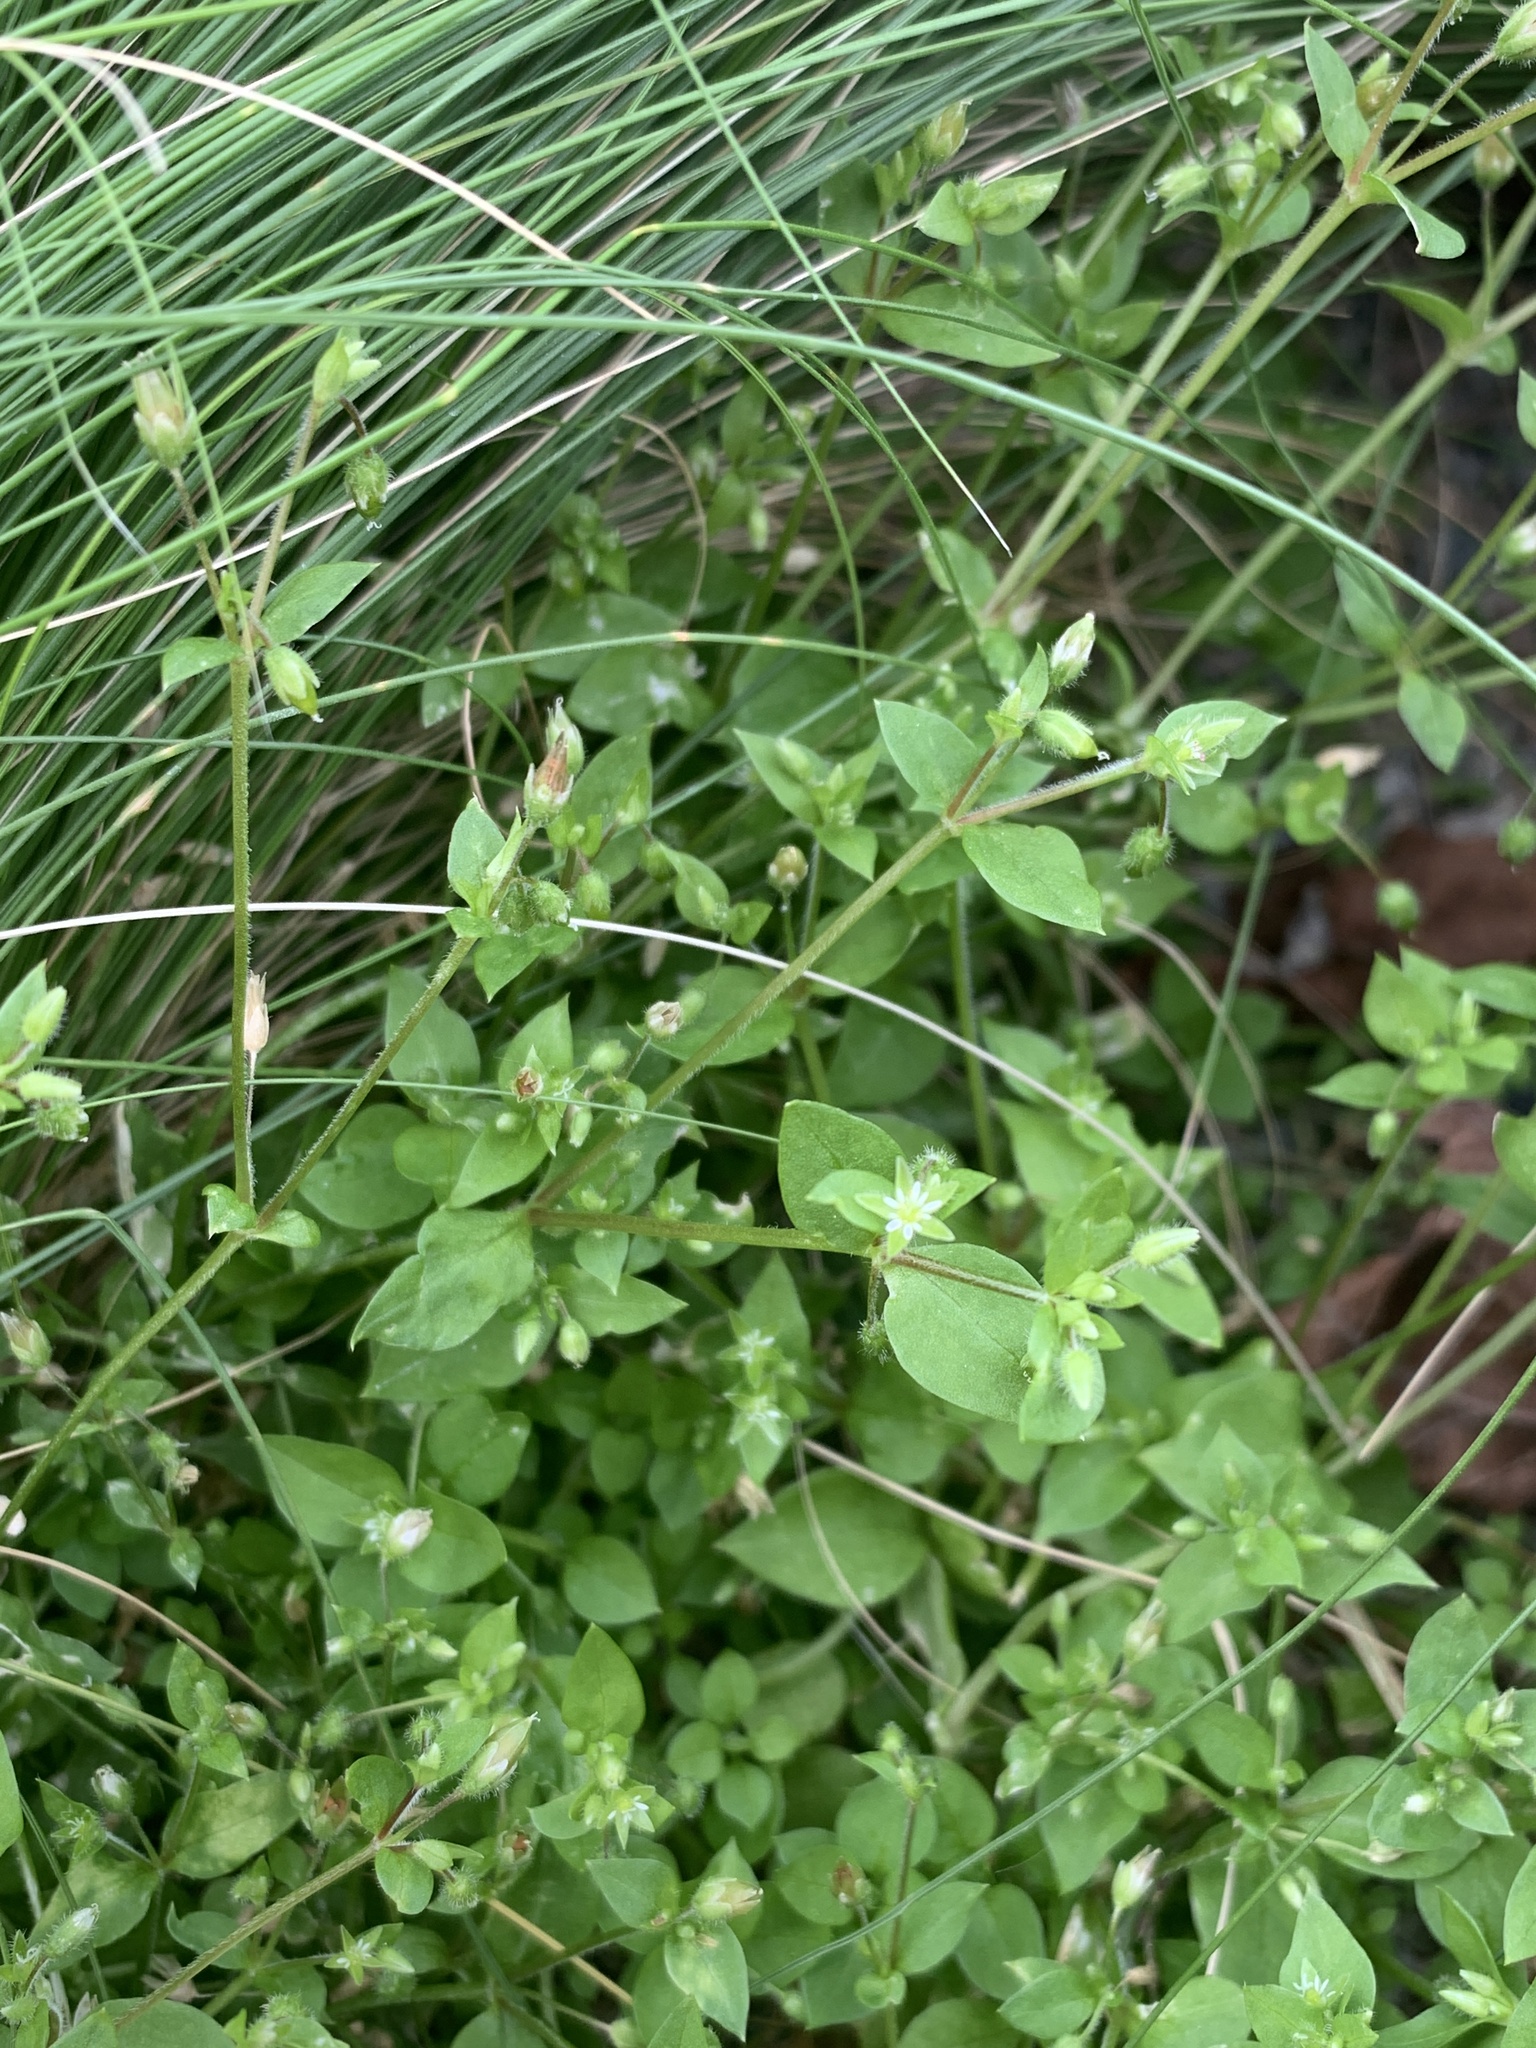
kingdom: Plantae
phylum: Tracheophyta
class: Magnoliopsida
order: Caryophyllales
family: Caryophyllaceae
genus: Stellaria
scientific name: Stellaria media
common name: Common chickweed
